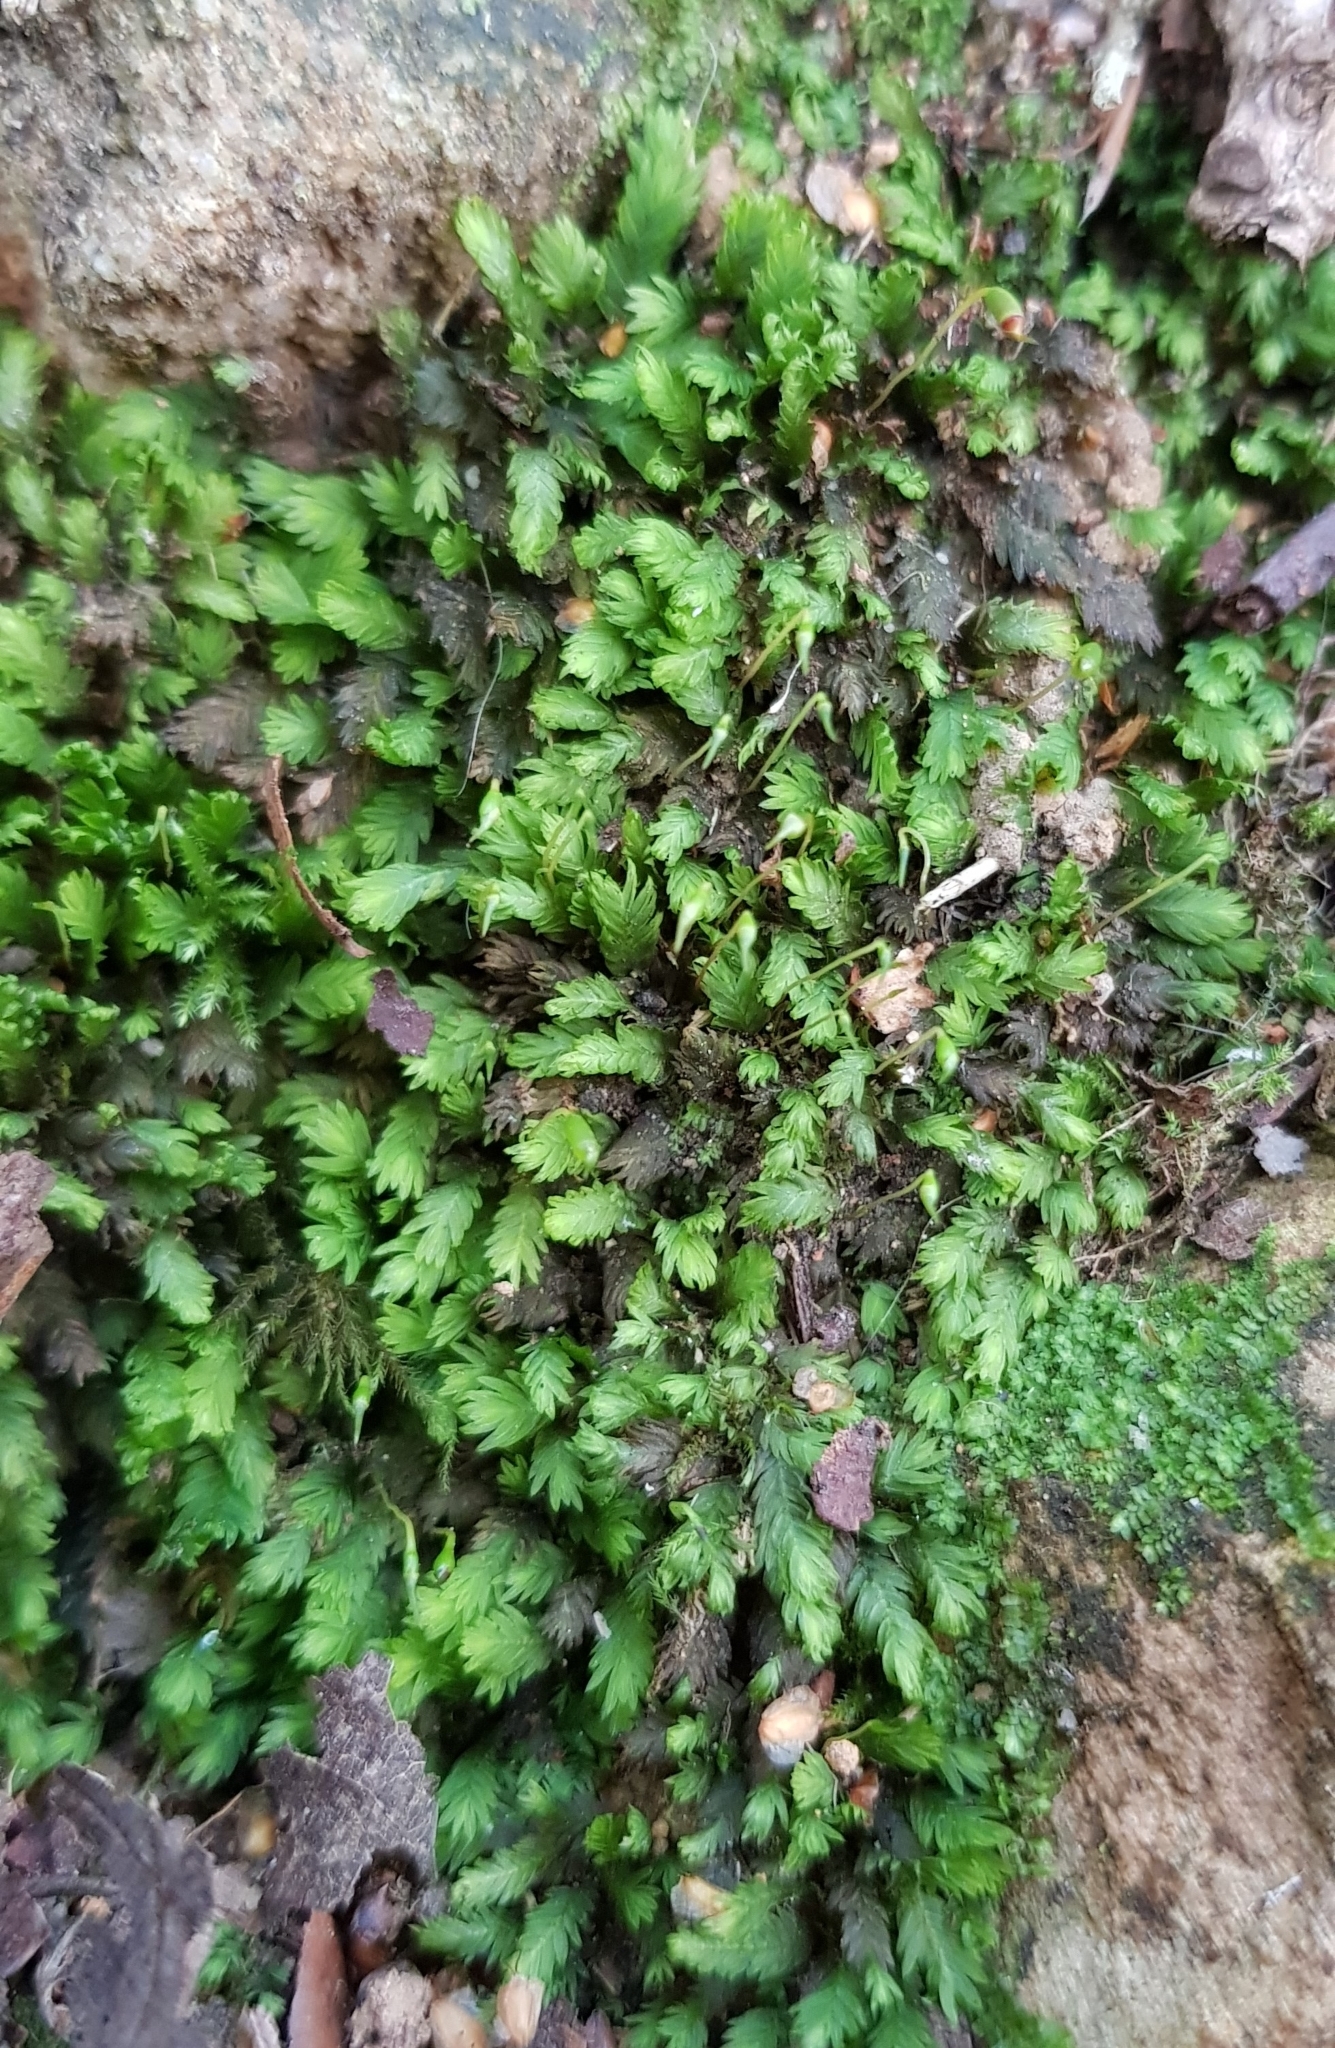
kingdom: Plantae
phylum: Bryophyta
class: Bryopsida
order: Dicranales
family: Fissidentaceae
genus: Fissidens
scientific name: Fissidens taxifolius
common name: Yew-leaved pocket moss
